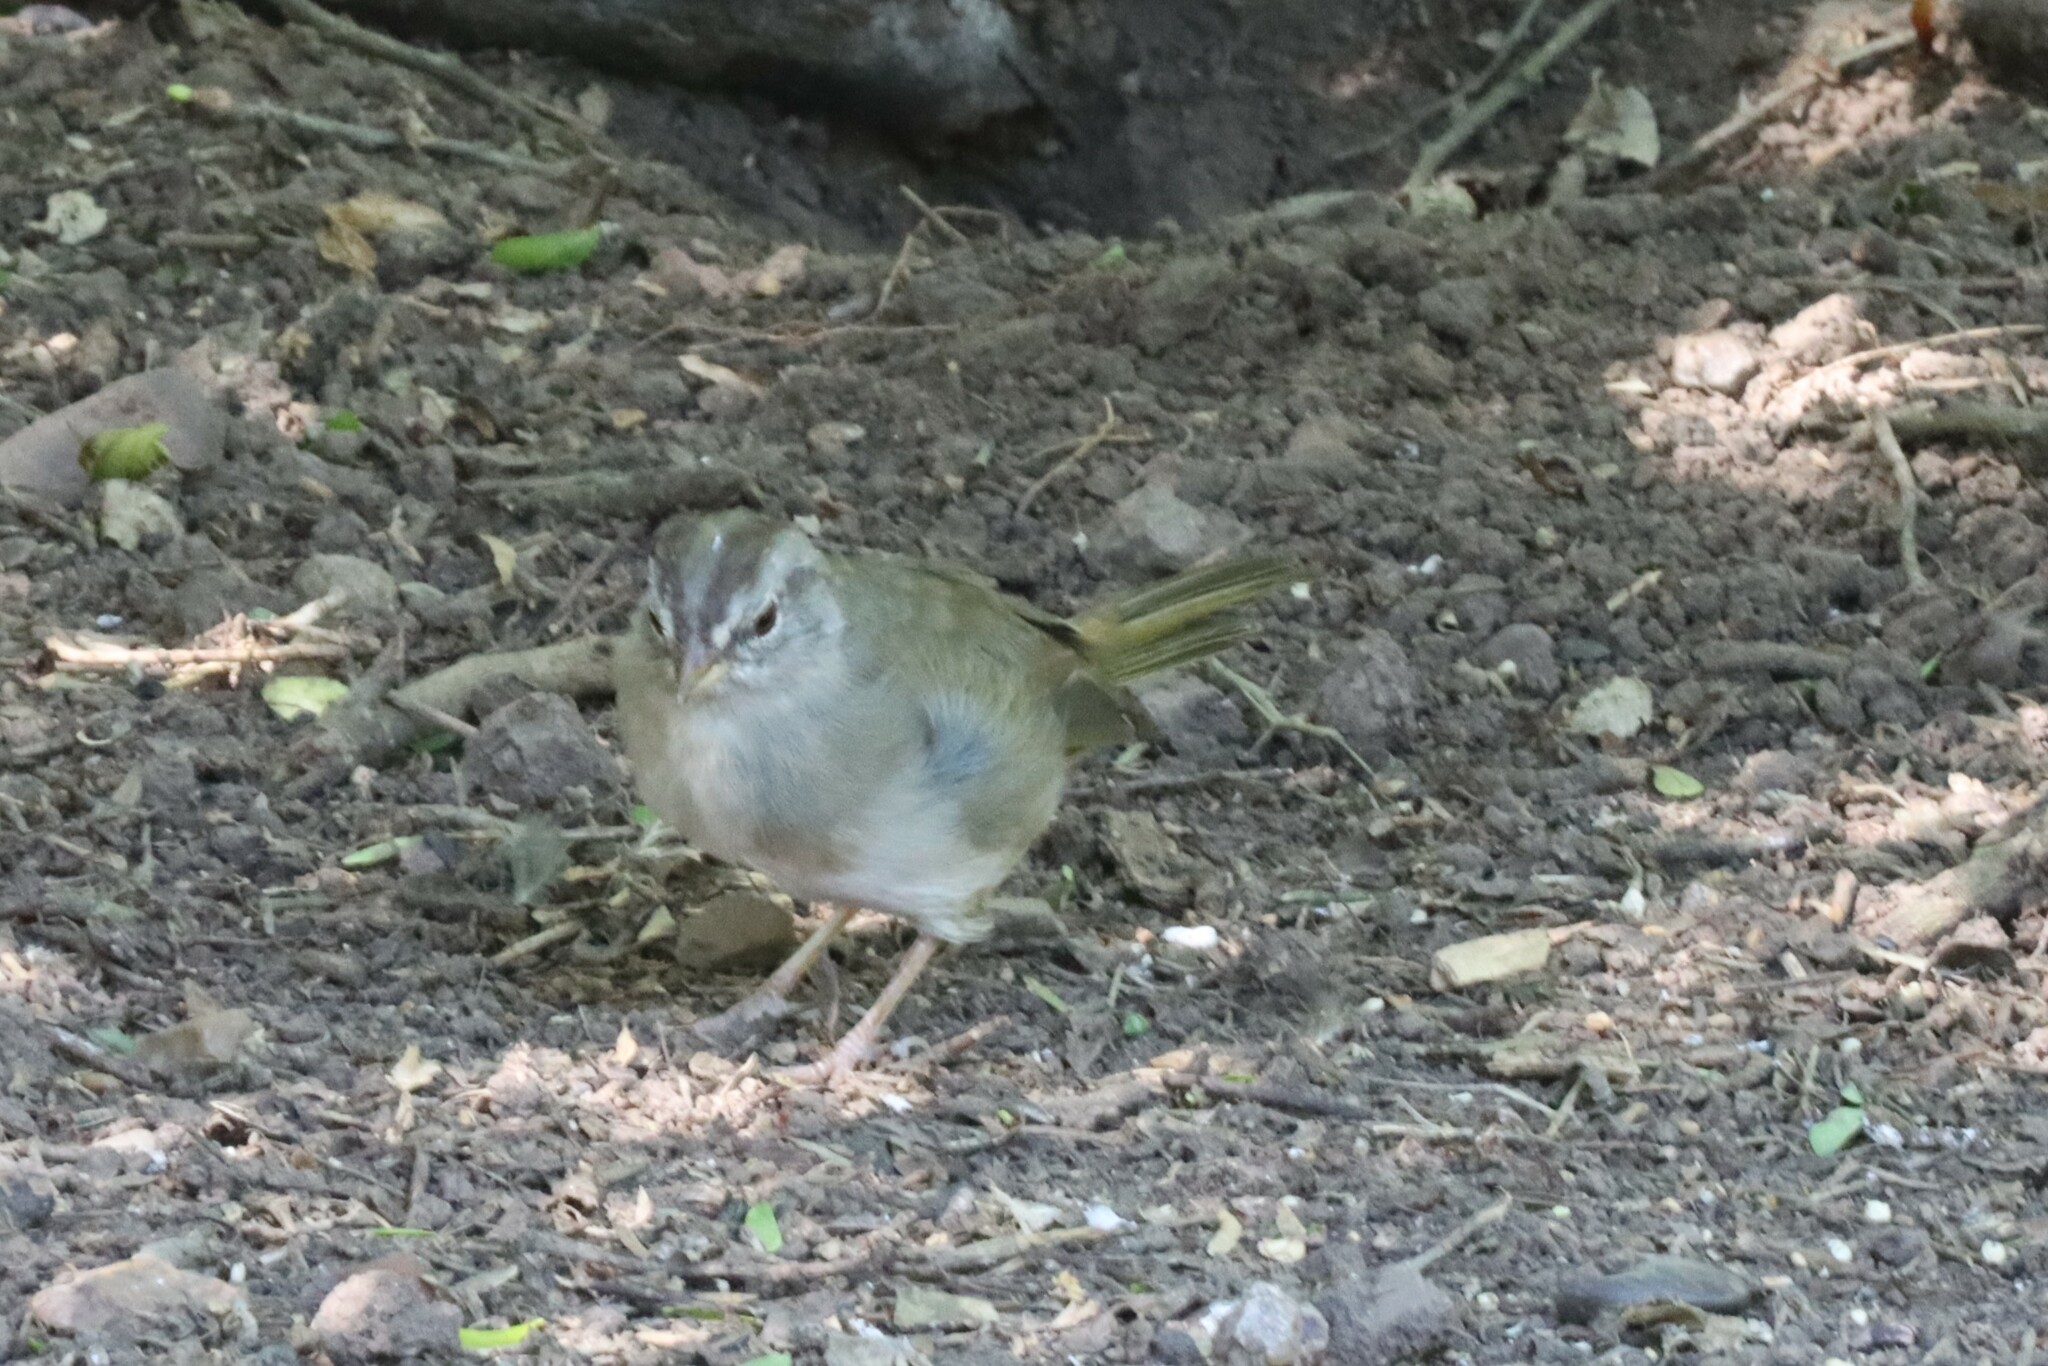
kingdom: Animalia
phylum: Chordata
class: Aves
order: Passeriformes
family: Passerellidae
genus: Arremonops
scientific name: Arremonops rufivirgatus
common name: Olive sparrow
